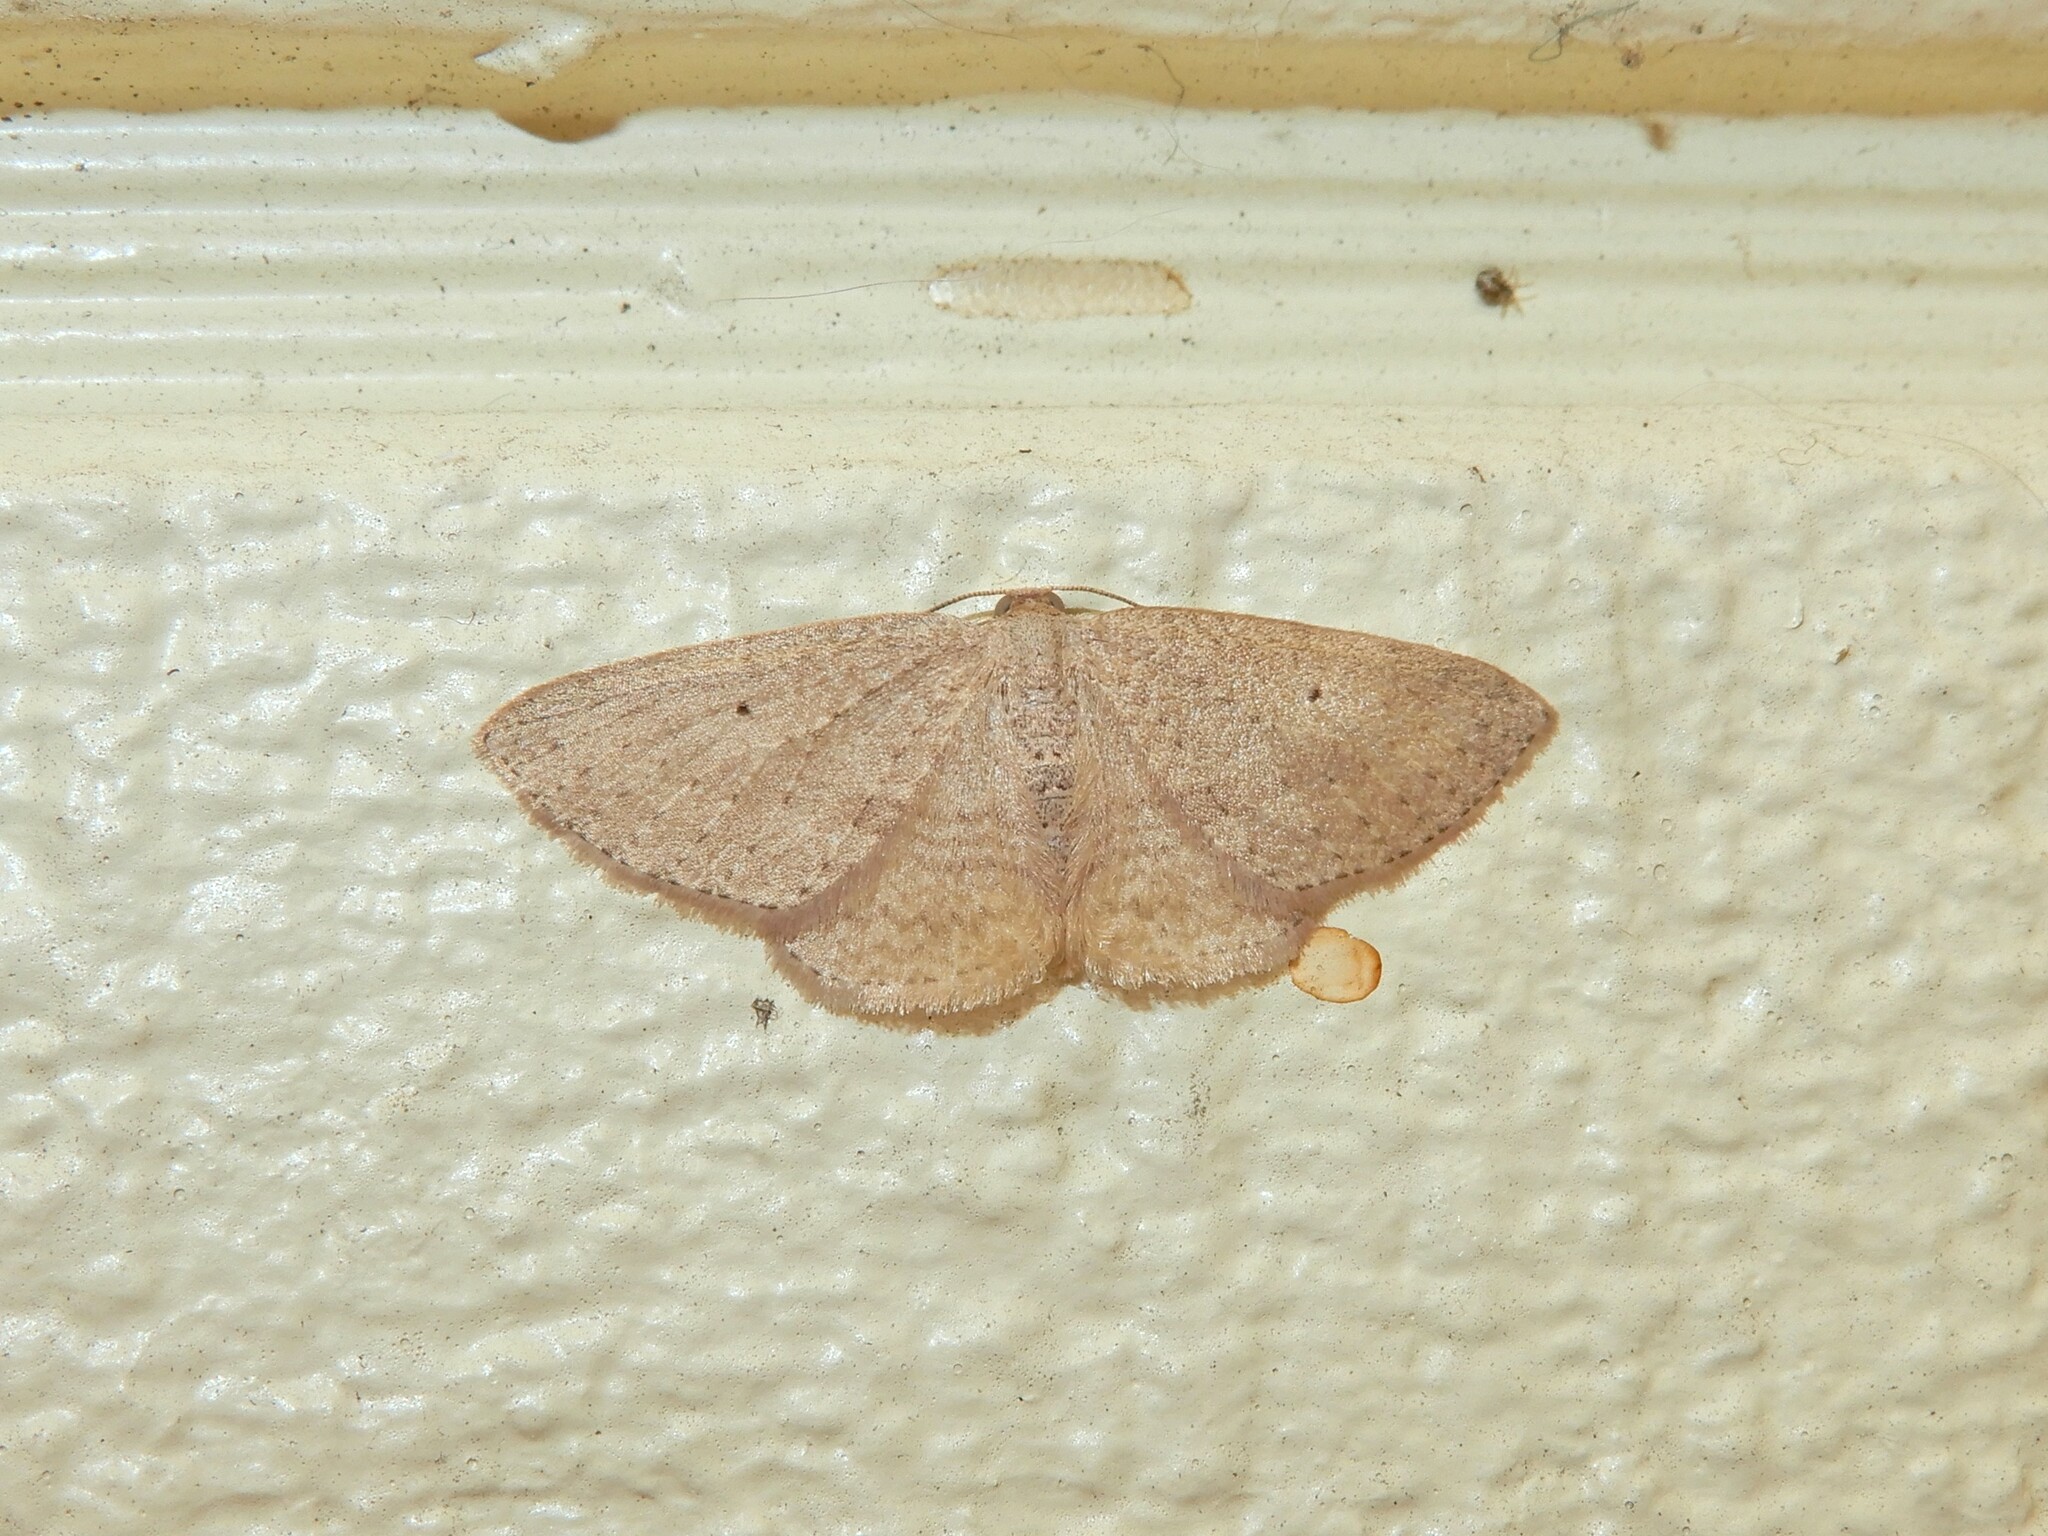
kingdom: Animalia
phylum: Arthropoda
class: Insecta
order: Lepidoptera
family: Geometridae
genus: Poecilasthena
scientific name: Poecilasthena schistaria
